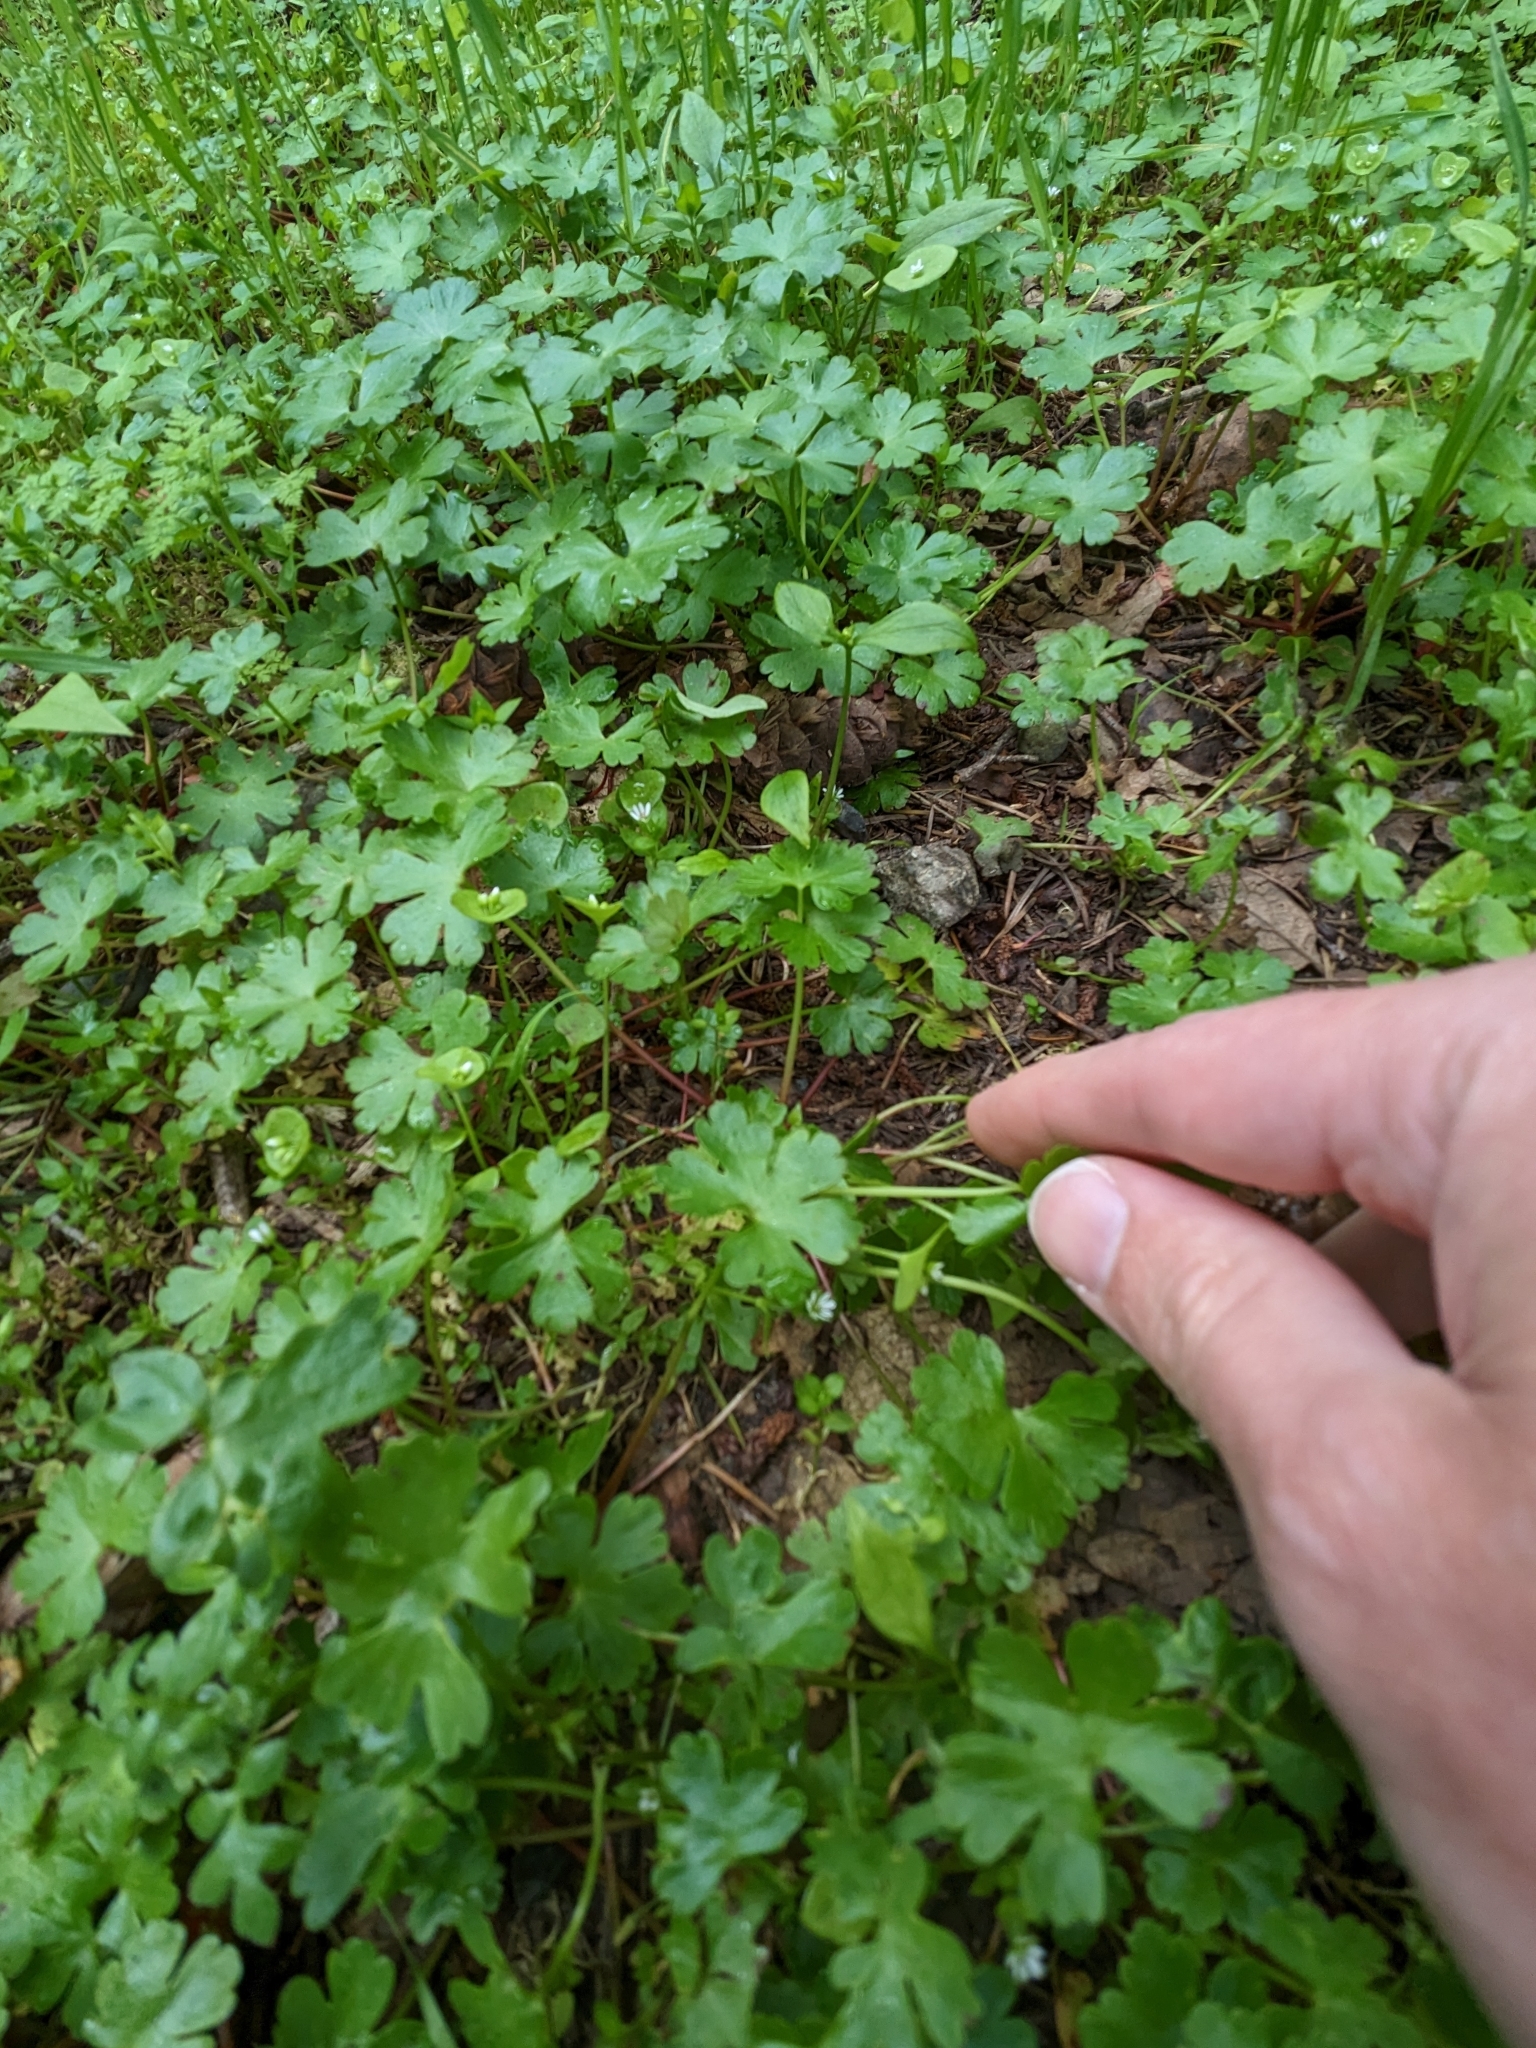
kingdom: Plantae
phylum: Tracheophyta
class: Magnoliopsida
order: Geraniales
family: Geraniaceae
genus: Geranium
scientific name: Geranium lucidum
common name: Shining crane's-bill
